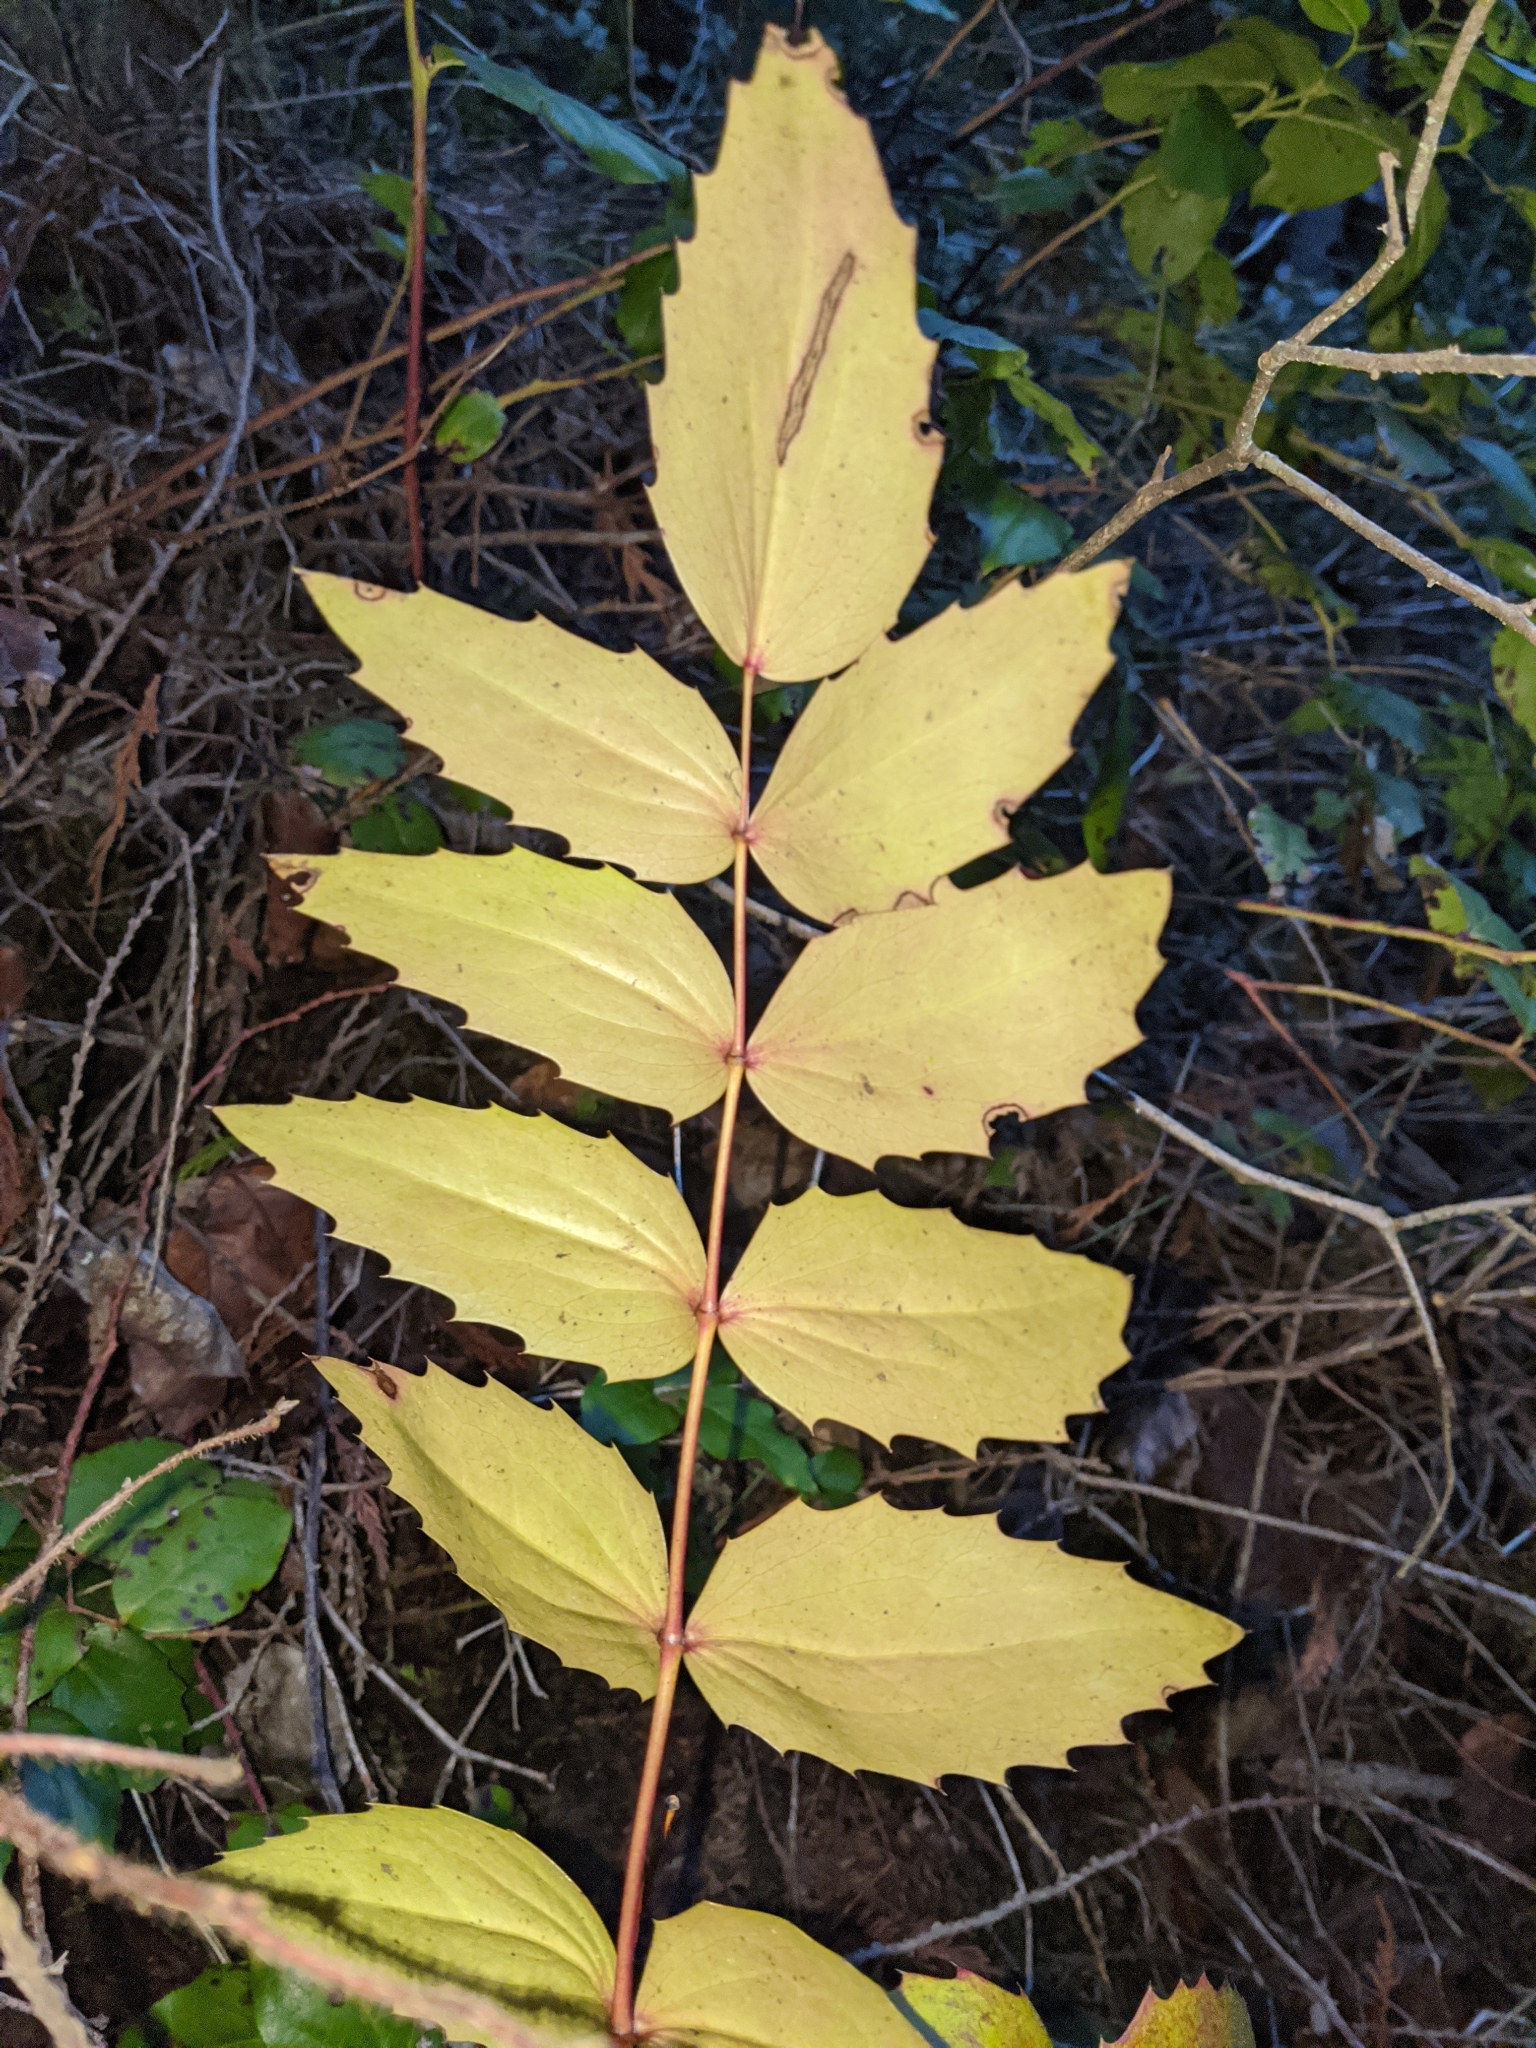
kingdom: Plantae
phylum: Tracheophyta
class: Magnoliopsida
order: Ranunculales
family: Berberidaceae
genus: Mahonia
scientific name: Mahonia nervosa
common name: Cascade oregon-grape
